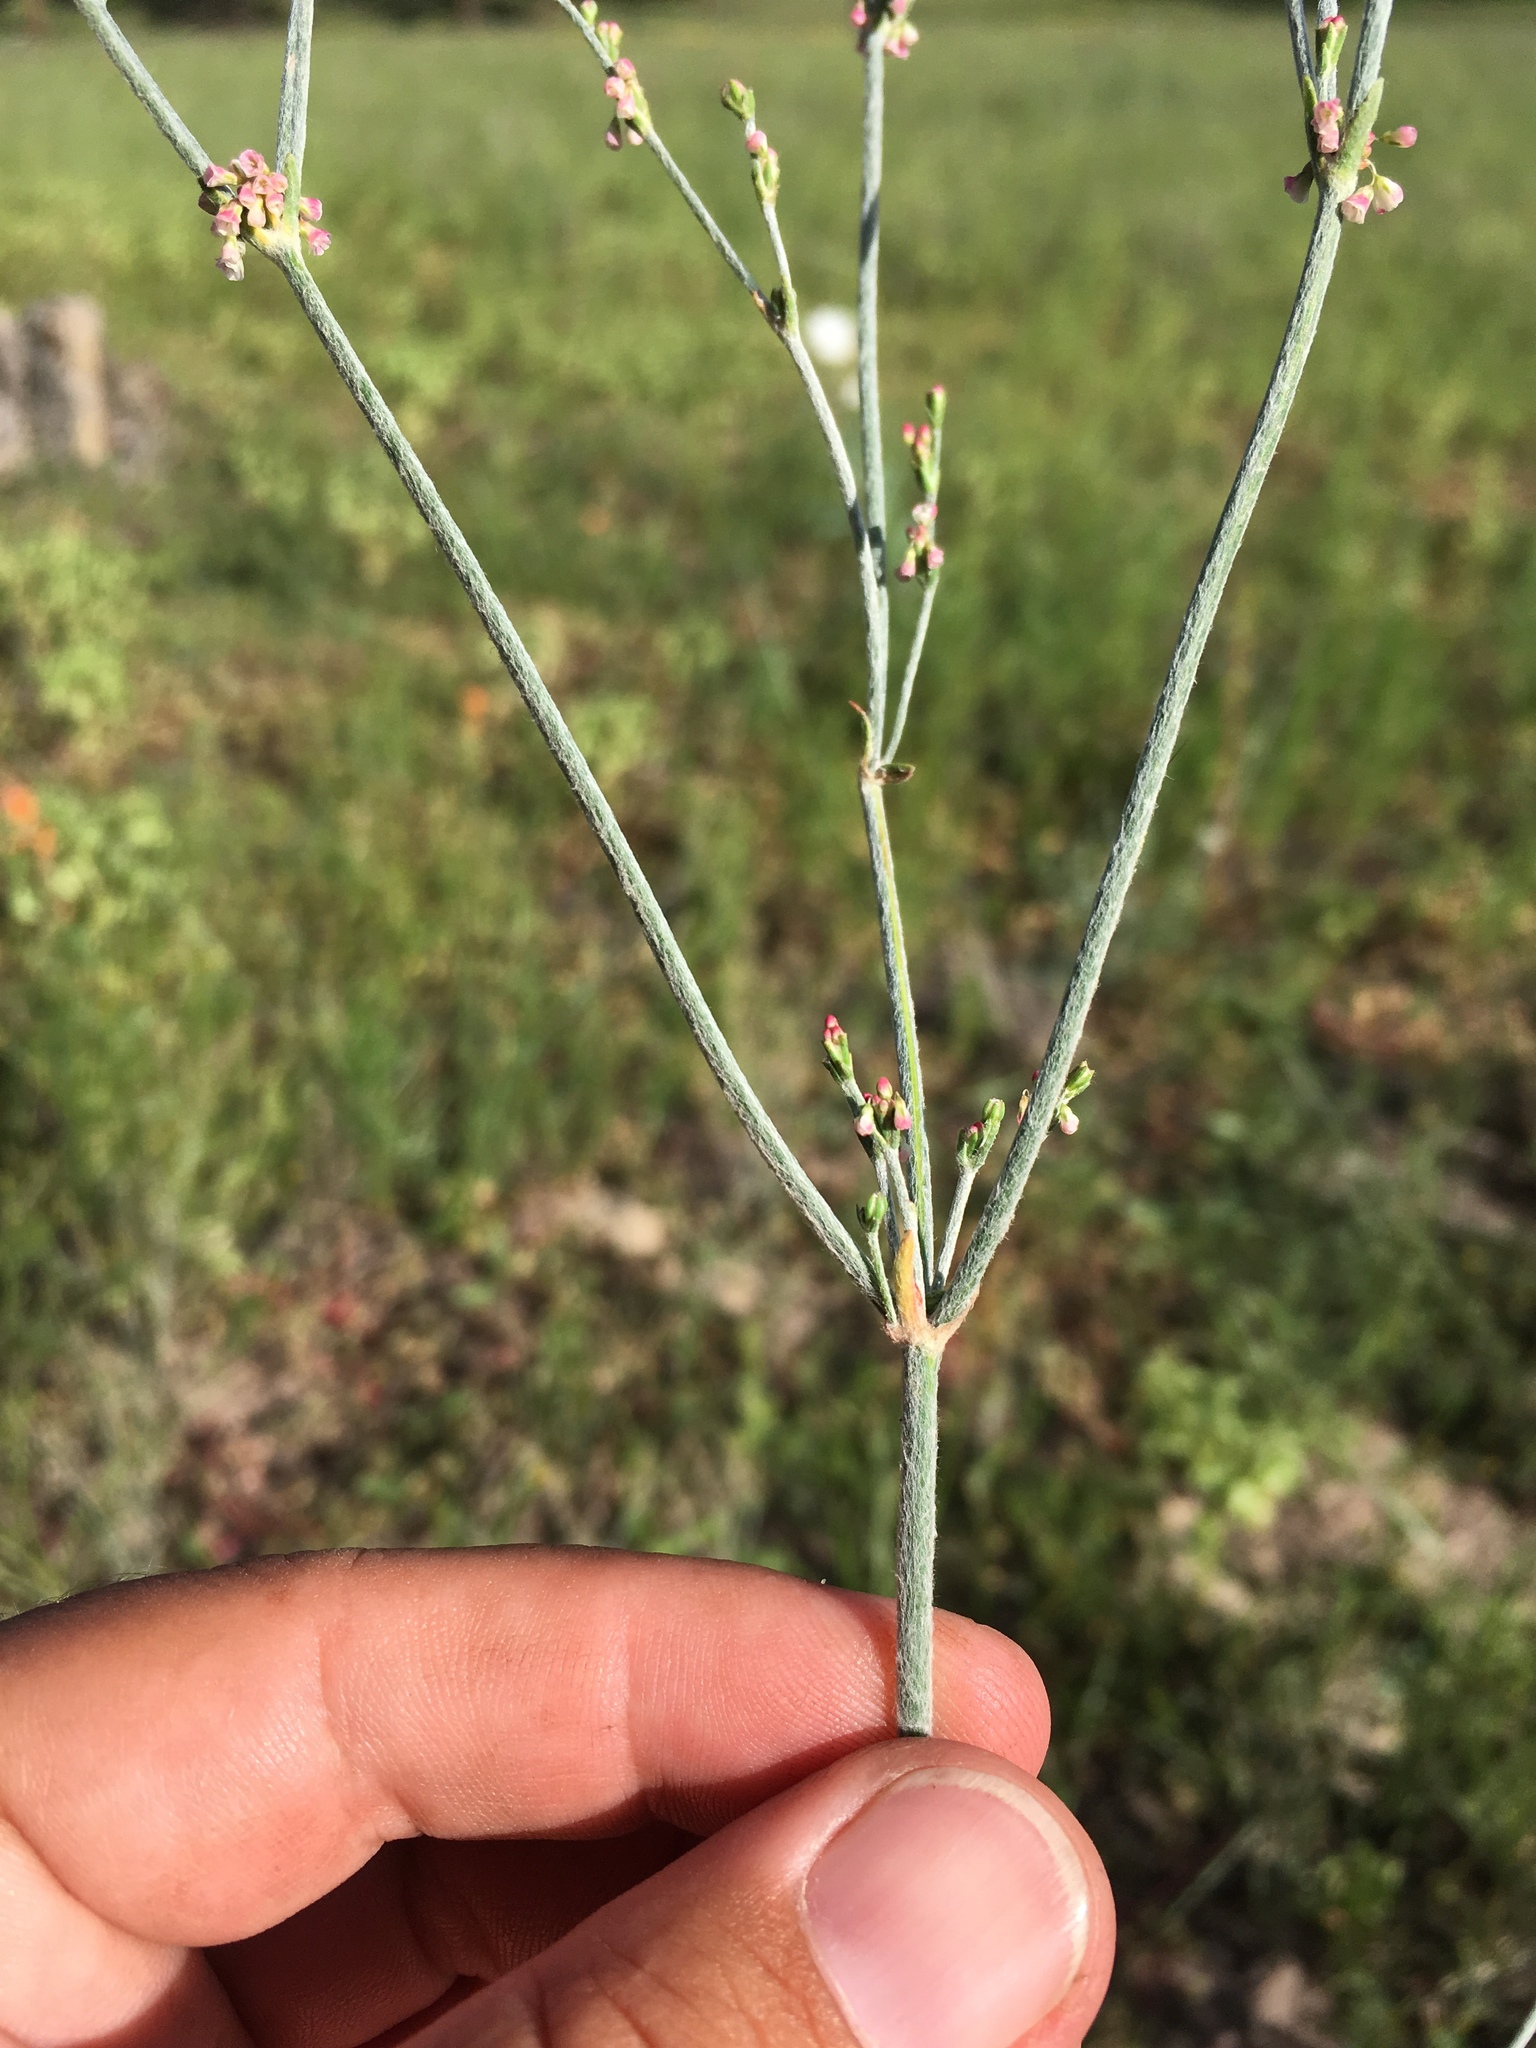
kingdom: Plantae
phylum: Tracheophyta
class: Magnoliopsida
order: Caryophyllales
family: Polygonaceae
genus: Eriogonum
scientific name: Eriogonum polycladon
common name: Sorrel wild buckwheat
